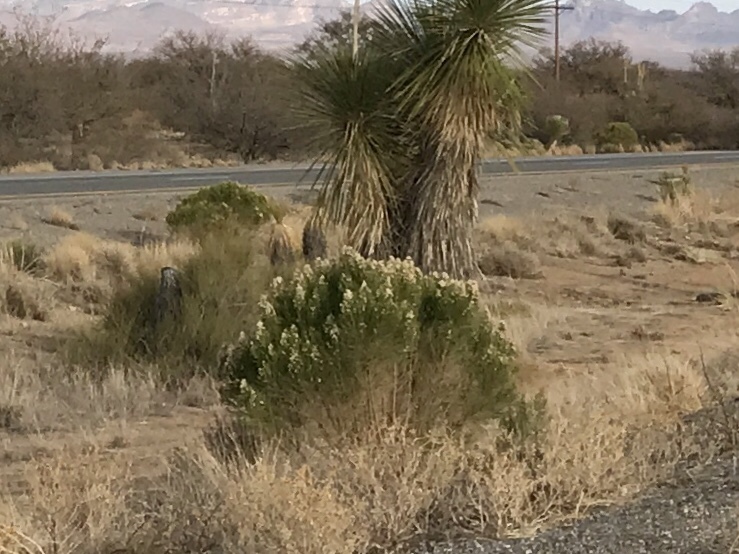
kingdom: Plantae
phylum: Tracheophyta
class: Magnoliopsida
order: Asterales
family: Asteraceae
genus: Baccharis
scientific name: Baccharis sarothroides
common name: Desert-broom
